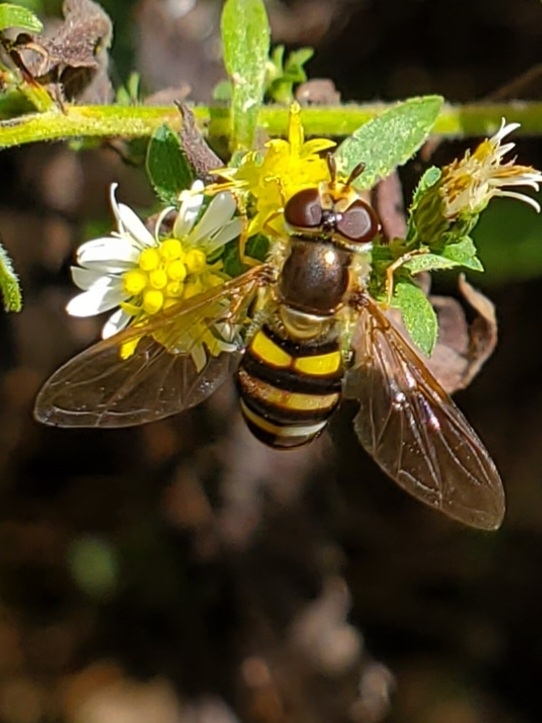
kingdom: Animalia
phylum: Arthropoda
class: Insecta
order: Diptera
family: Syrphidae
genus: Eupeodes
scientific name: Eupeodes
